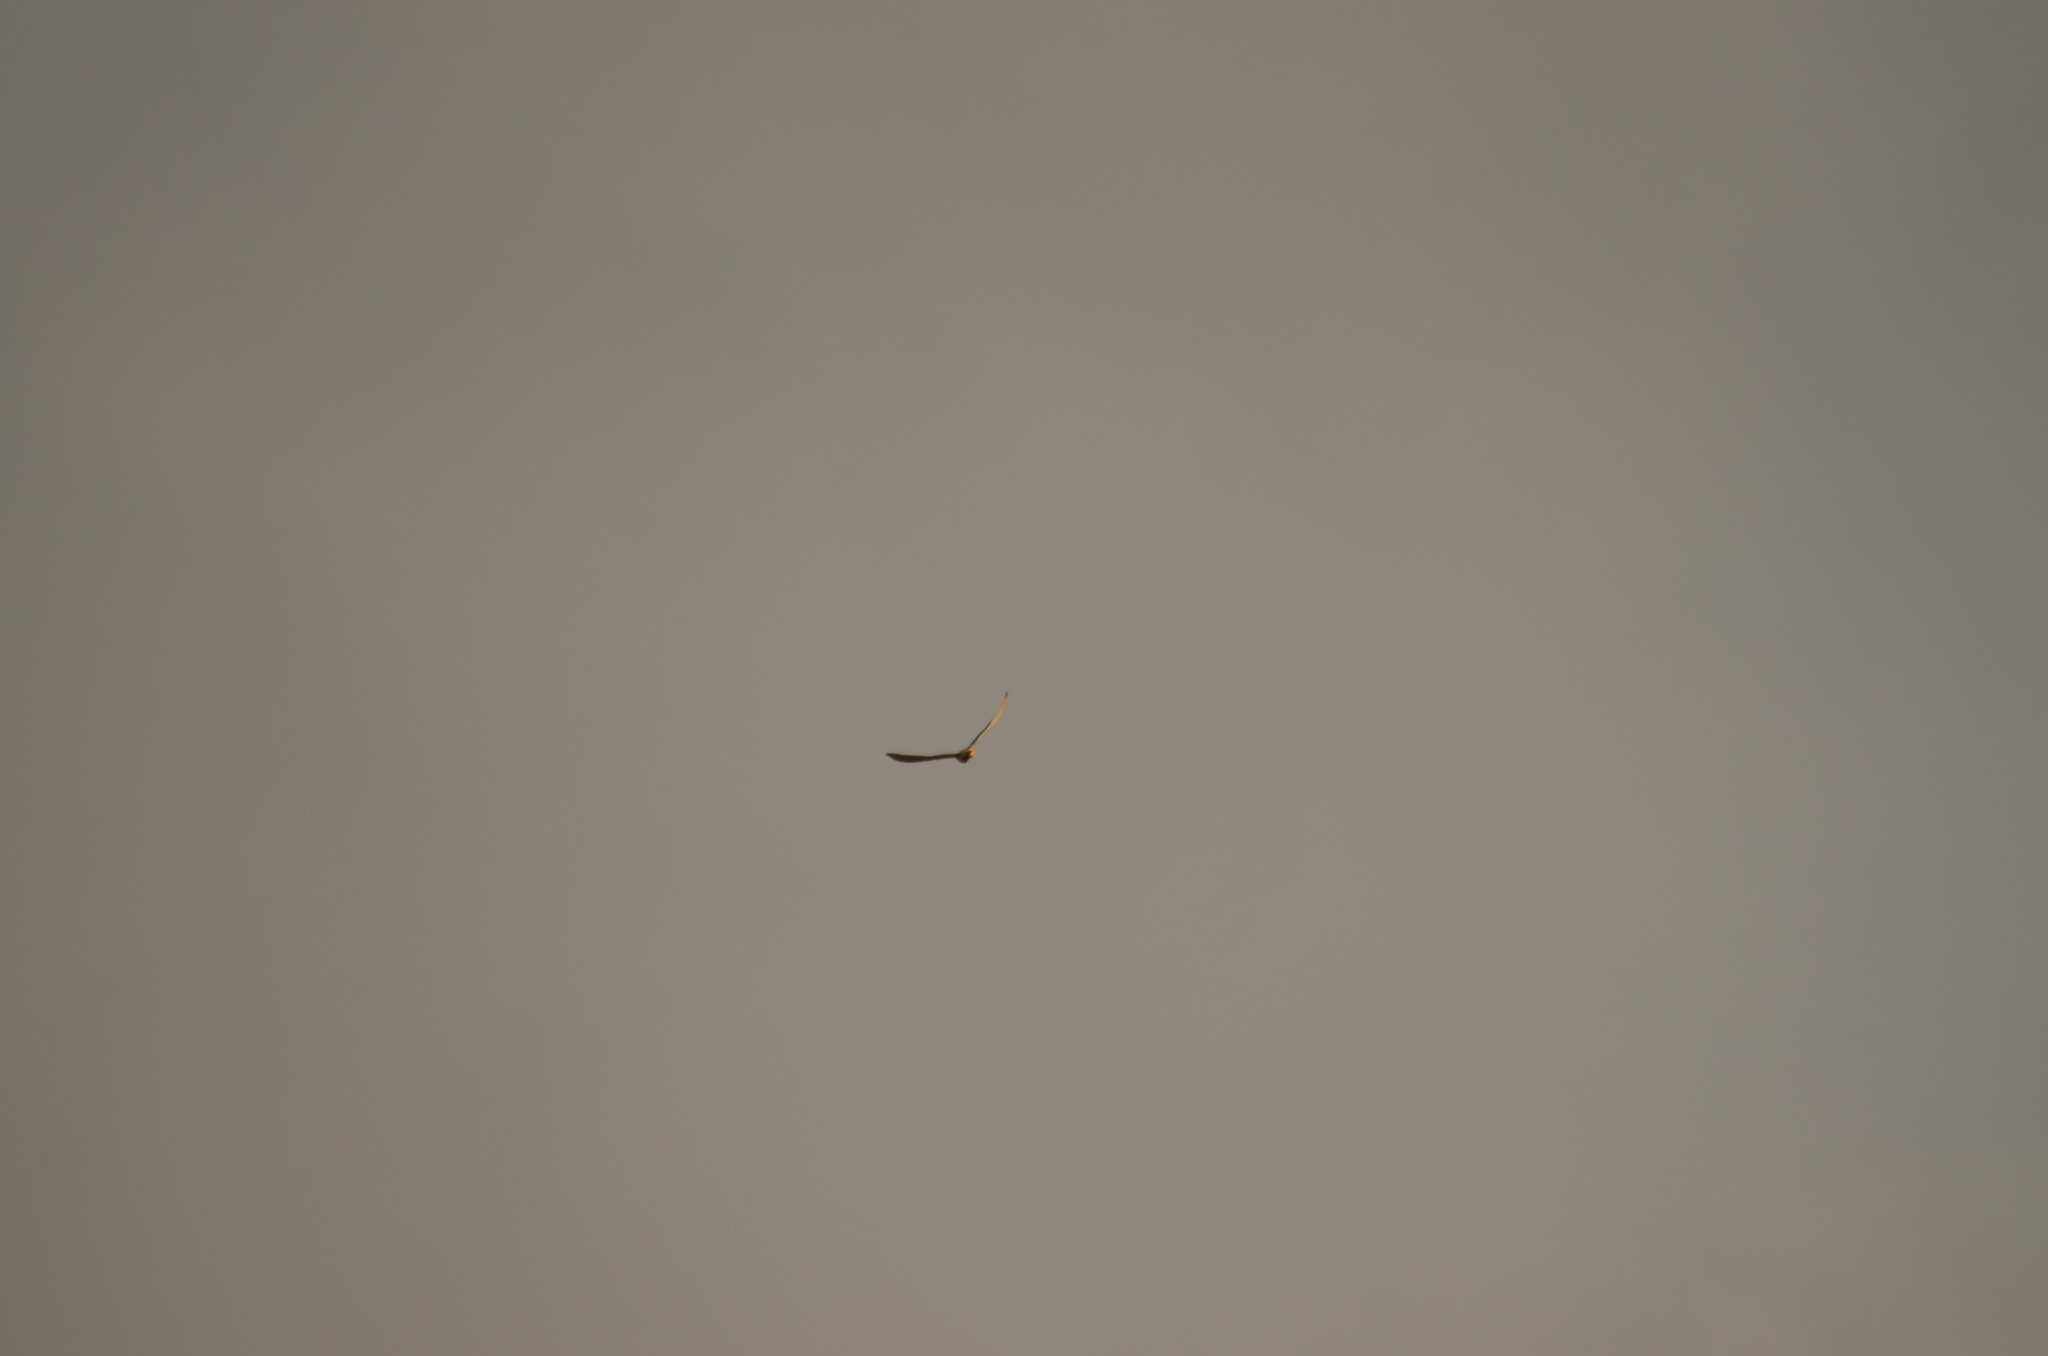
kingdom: Animalia
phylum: Chordata
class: Aves
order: Falconiformes
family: Falconidae
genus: Falco
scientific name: Falco tinnunculus
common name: Common kestrel
